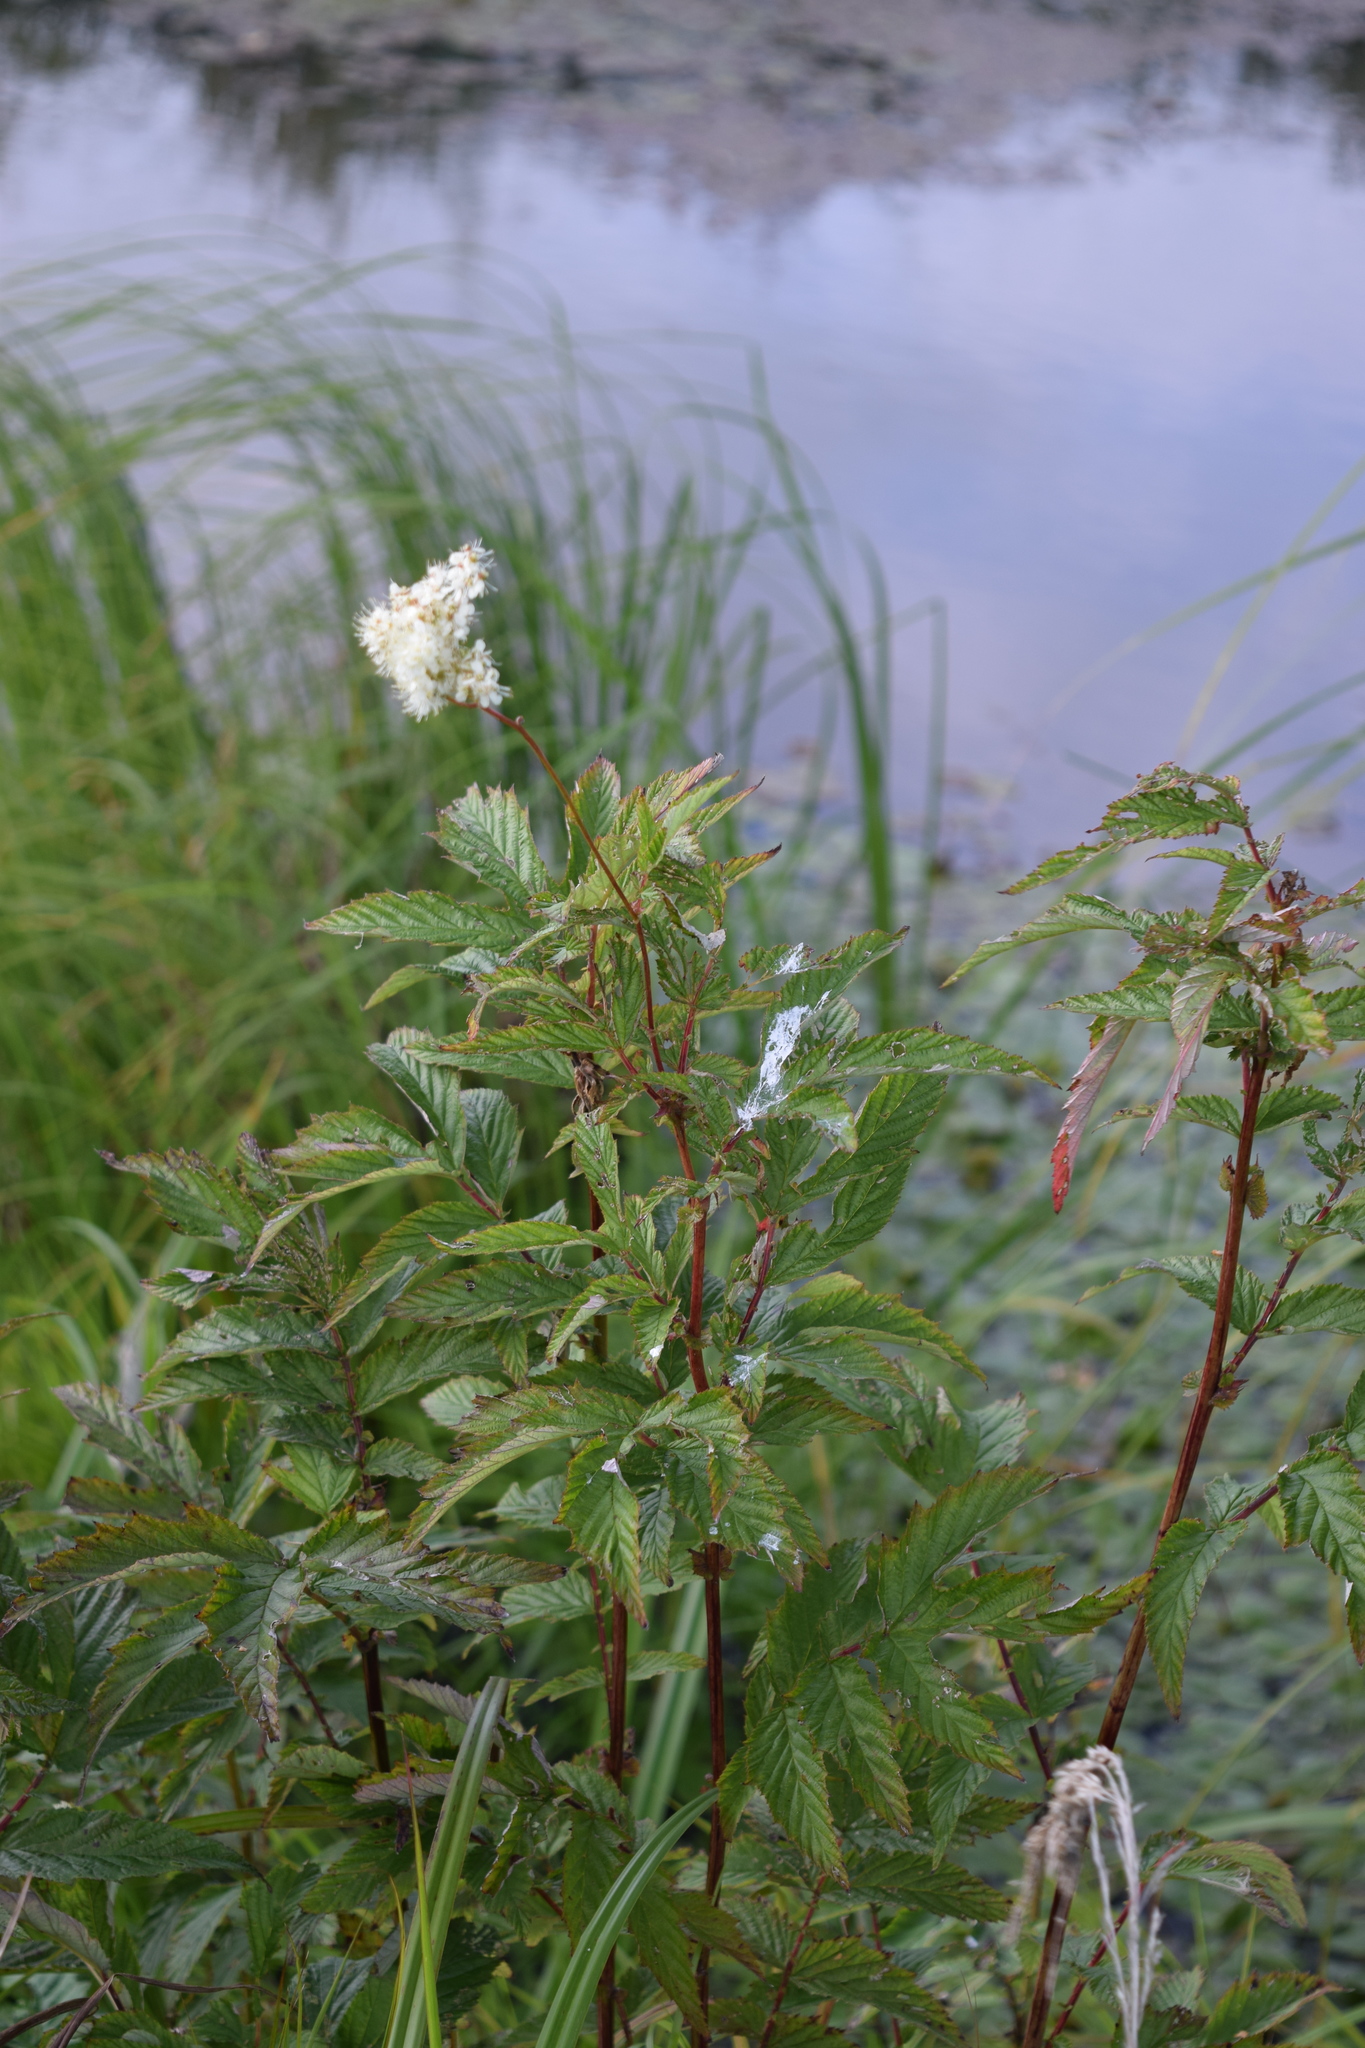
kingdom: Plantae
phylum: Tracheophyta
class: Magnoliopsida
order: Rosales
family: Rosaceae
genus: Filipendula
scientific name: Filipendula ulmaria
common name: Meadowsweet
